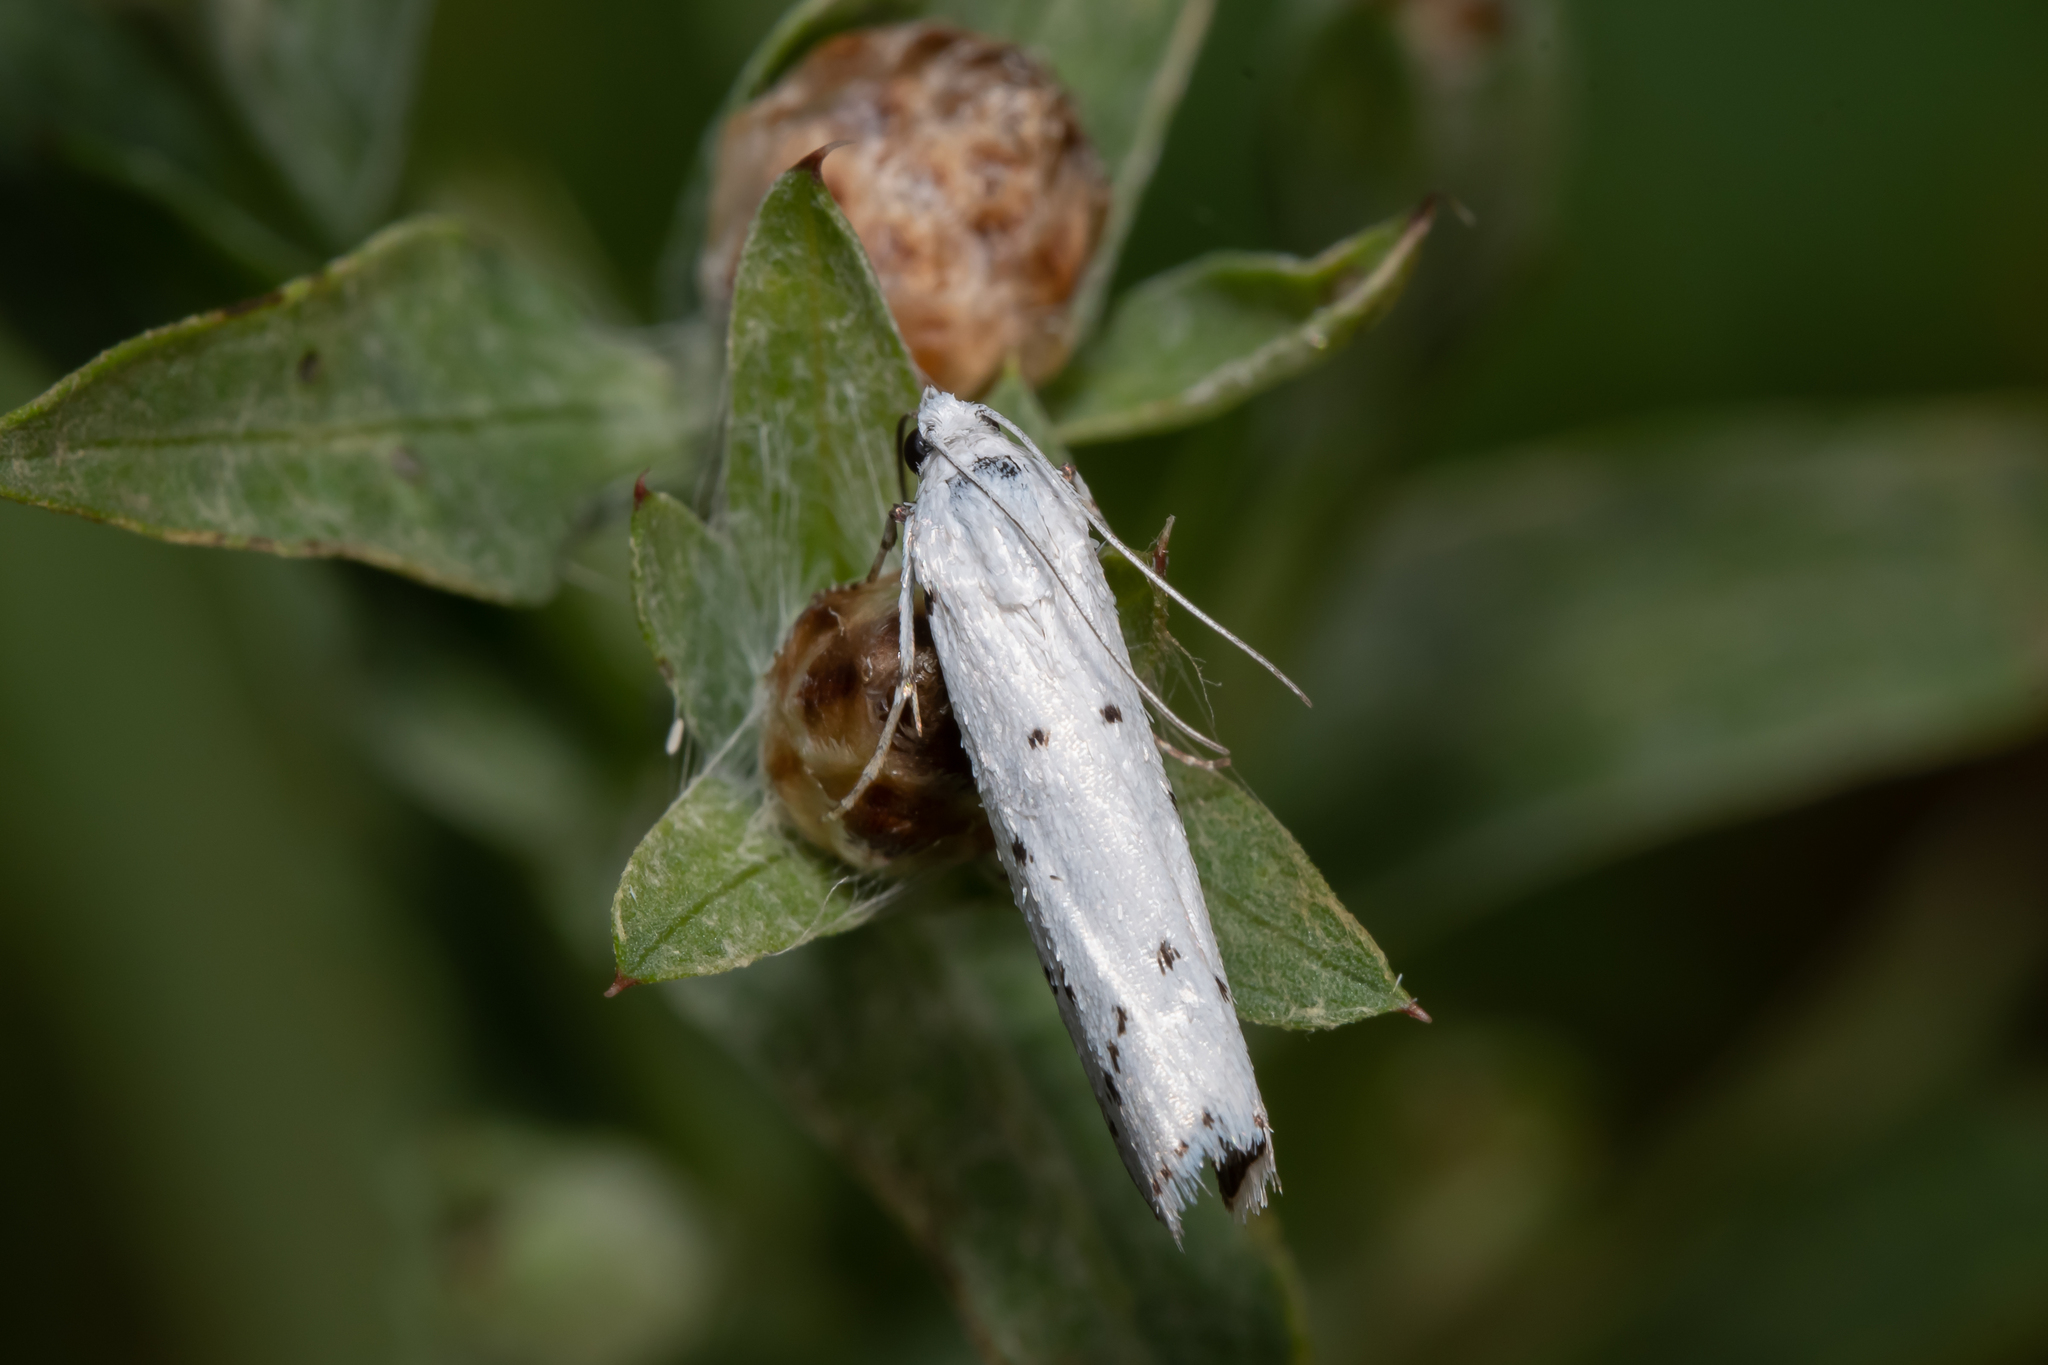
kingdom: Animalia
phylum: Arthropoda
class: Insecta
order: Lepidoptera
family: Pyralidae
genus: Myelois
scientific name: Myelois circumvoluta
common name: Thistle ermine
